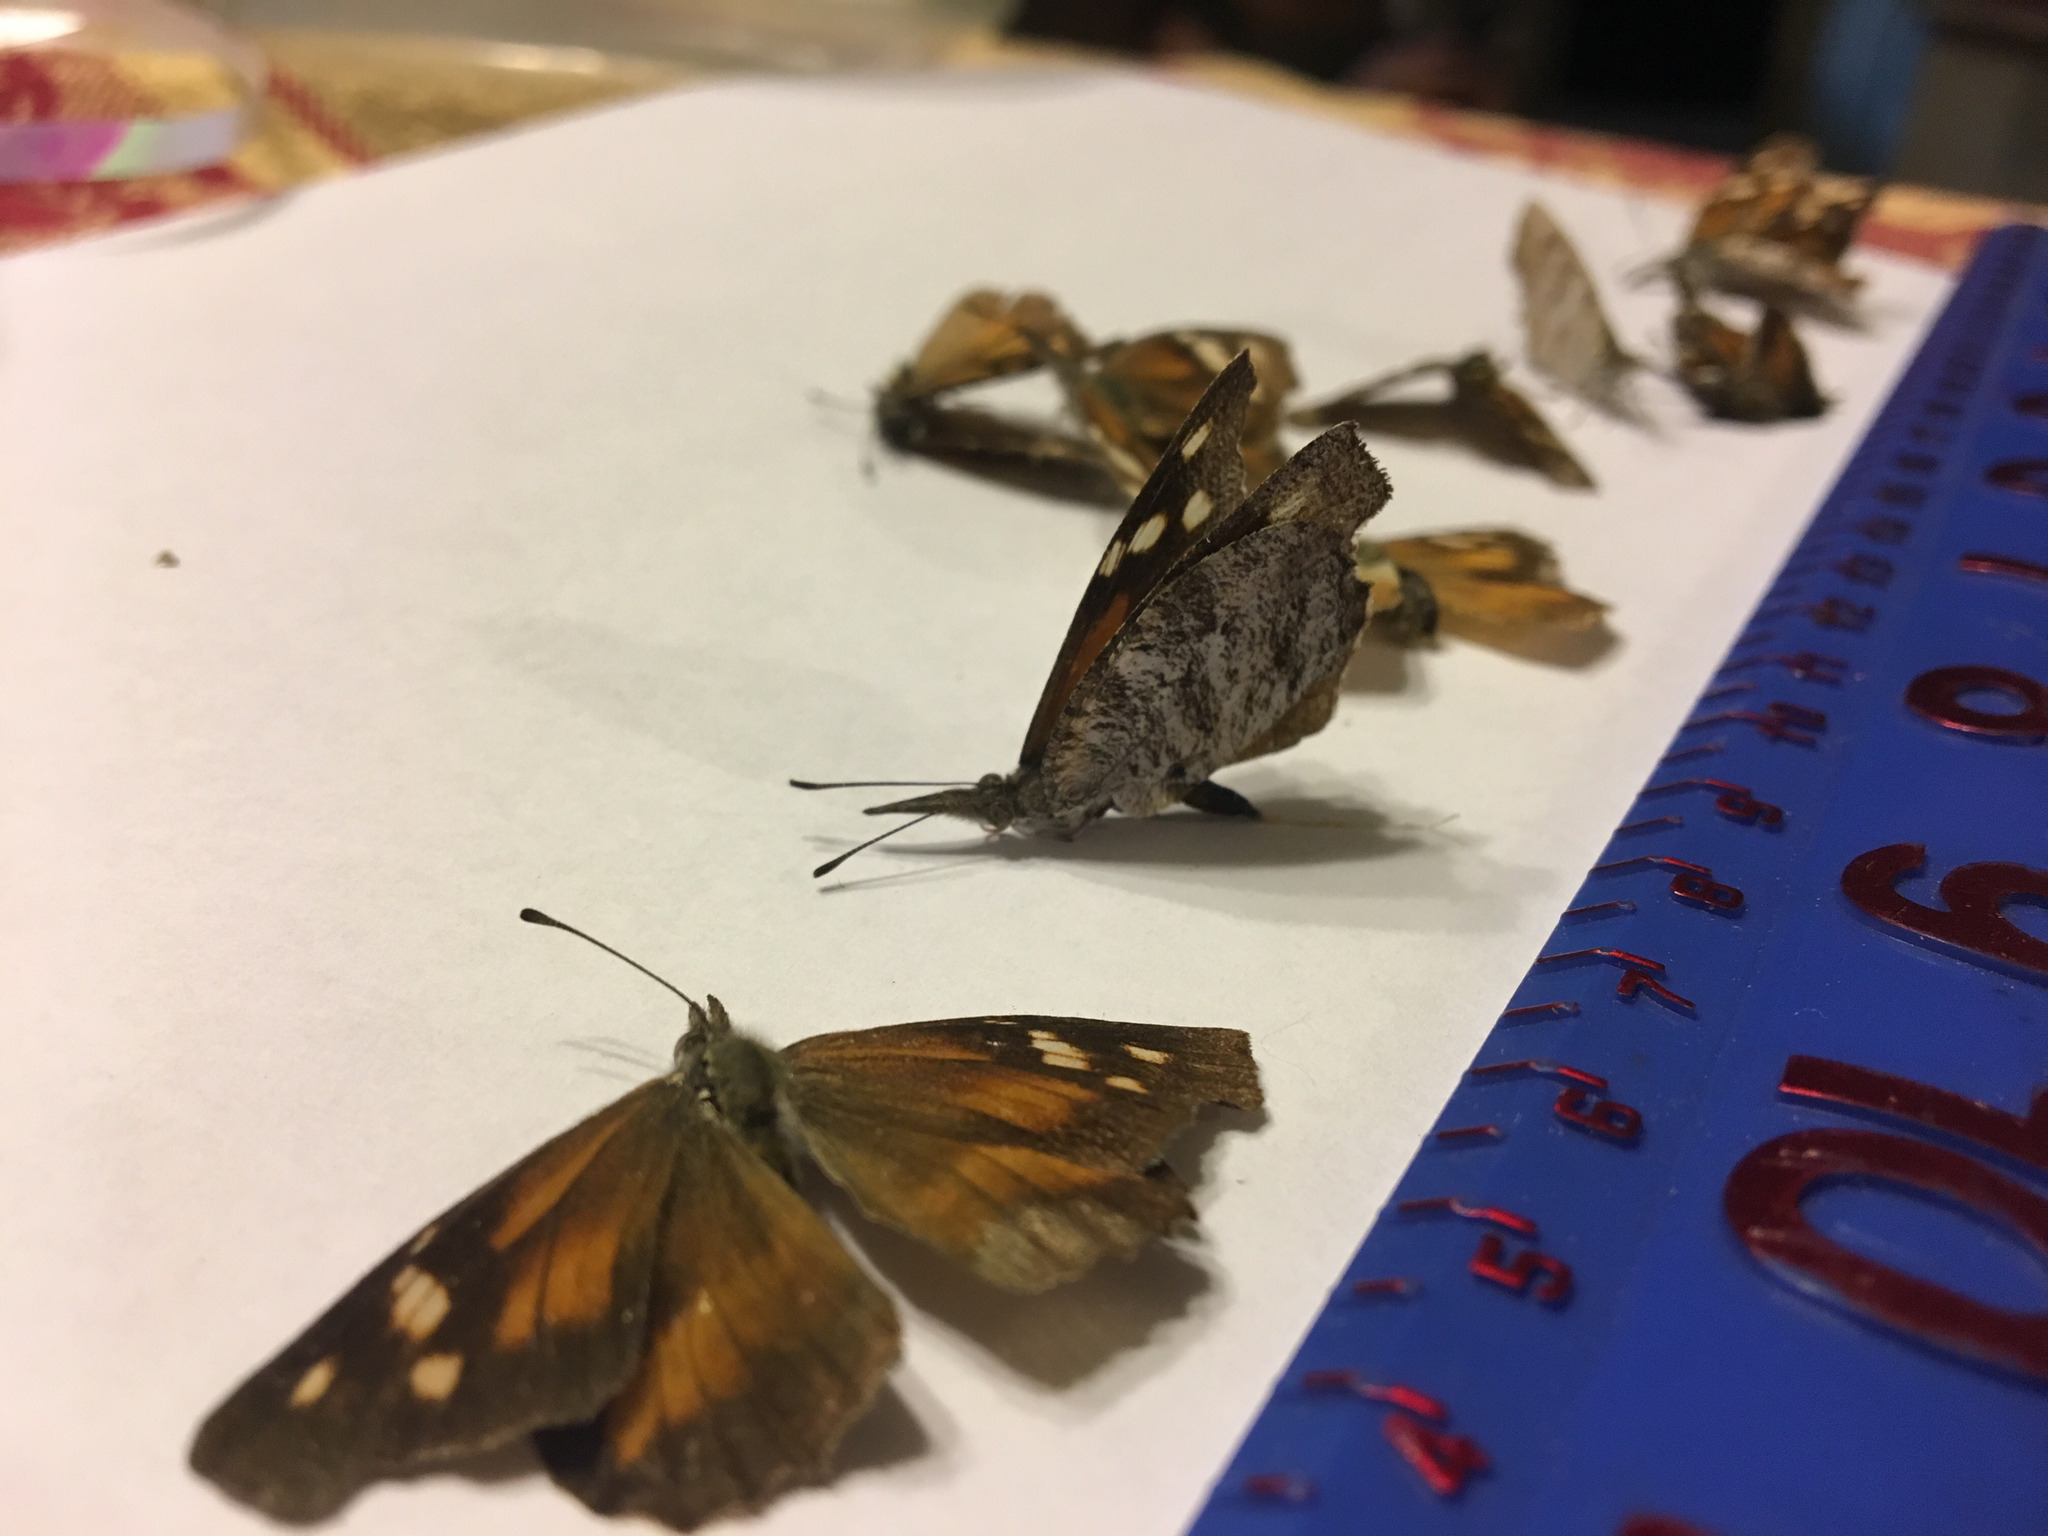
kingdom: Animalia
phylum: Arthropoda
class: Insecta
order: Lepidoptera
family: Nymphalidae
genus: Libytheana
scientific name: Libytheana carinenta
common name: American snout
